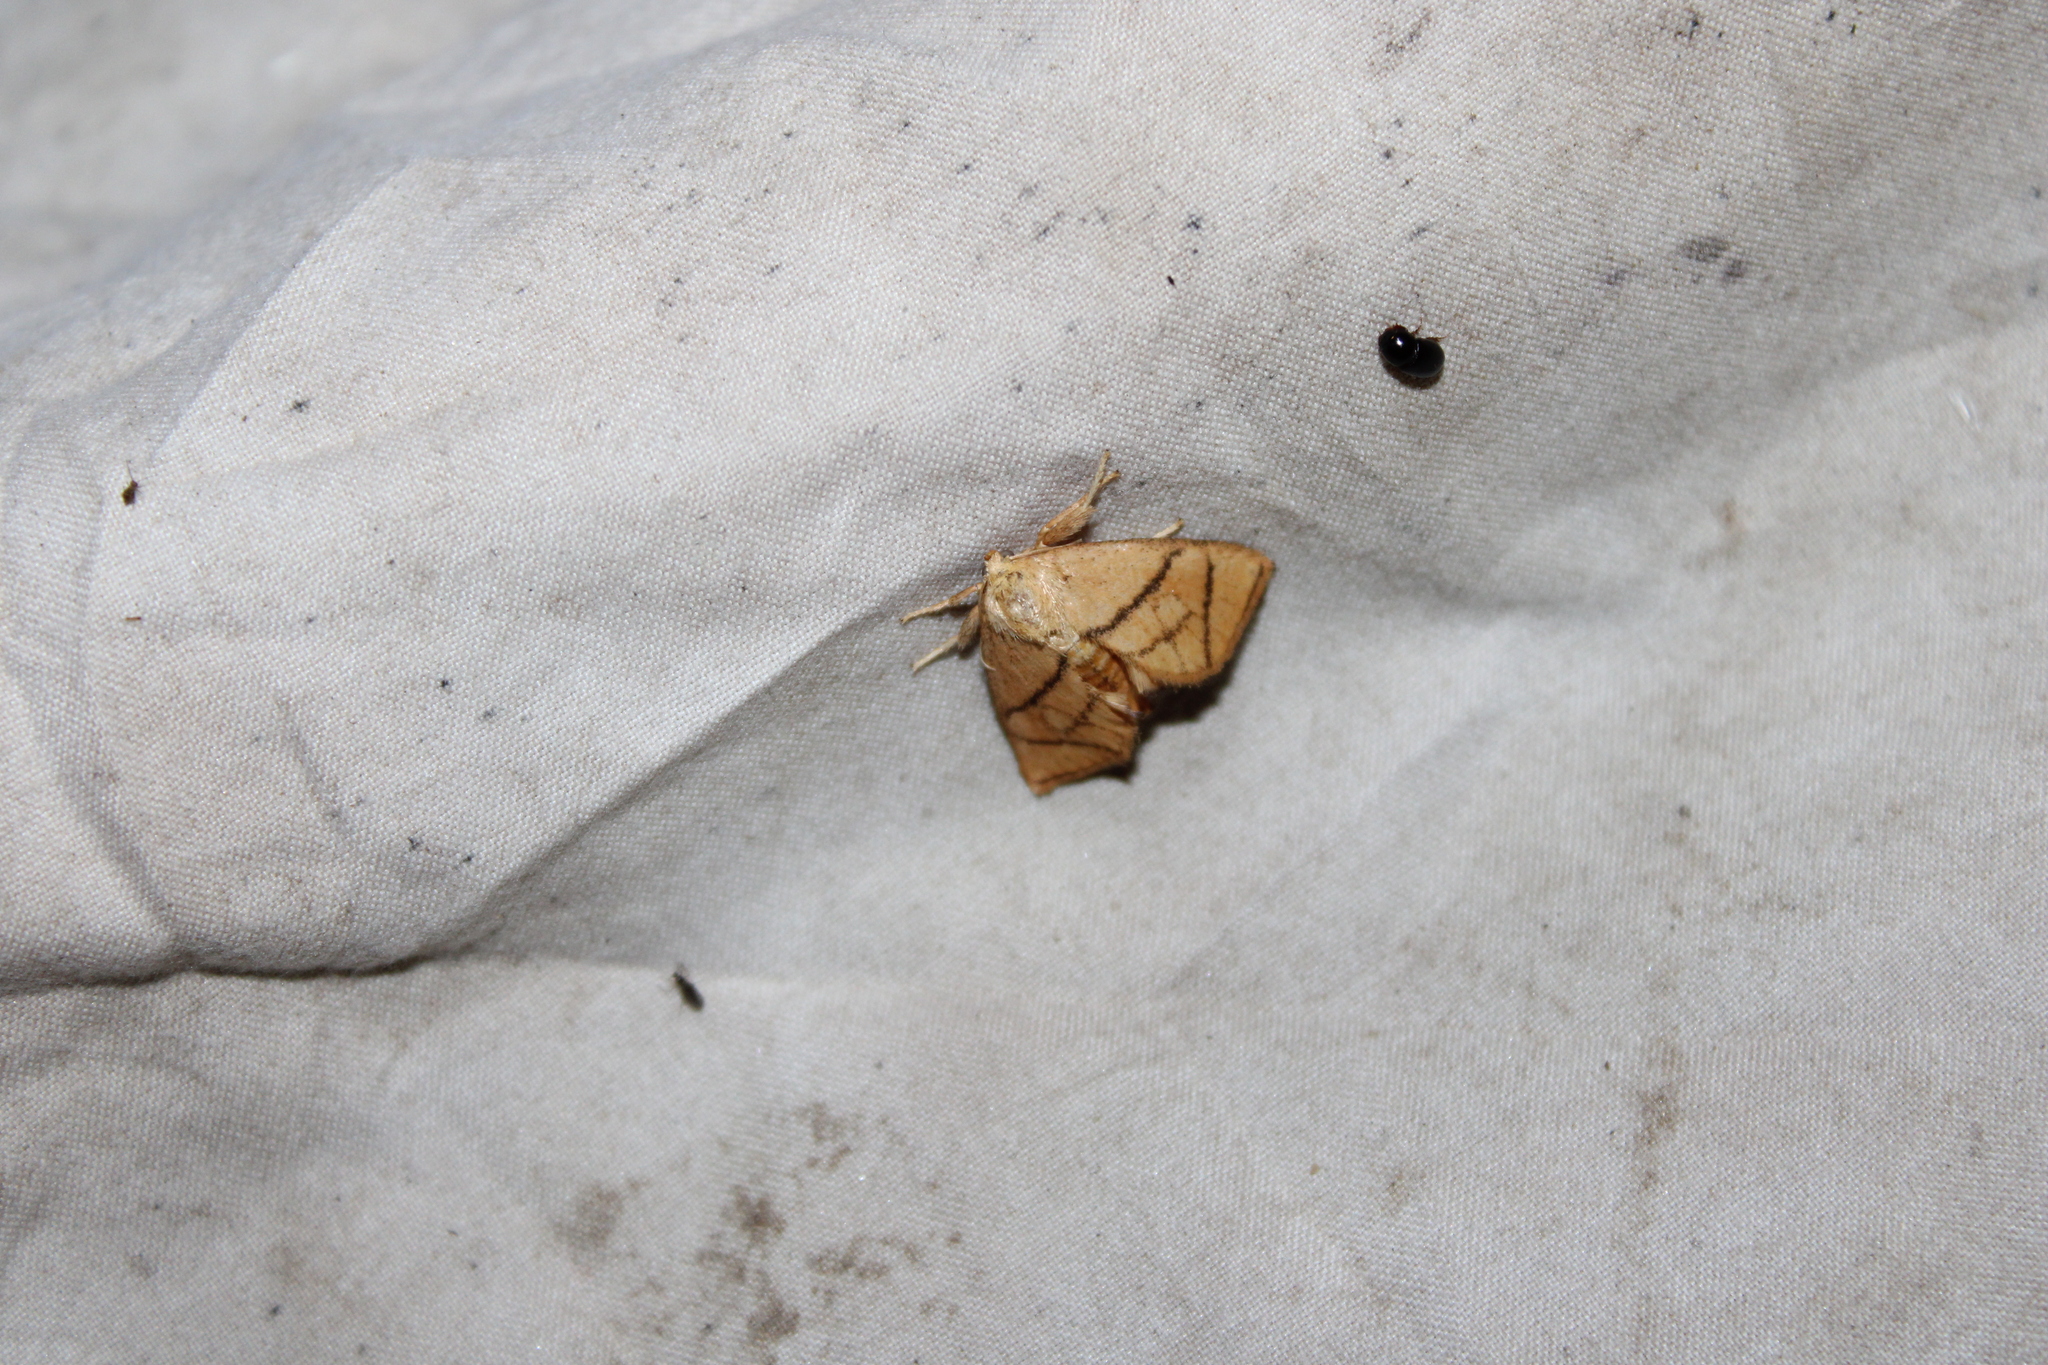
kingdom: Animalia
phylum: Arthropoda
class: Insecta
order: Lepidoptera
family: Limacodidae
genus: Apoda
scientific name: Apoda y-inversa
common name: Yellow-collared slug moth
